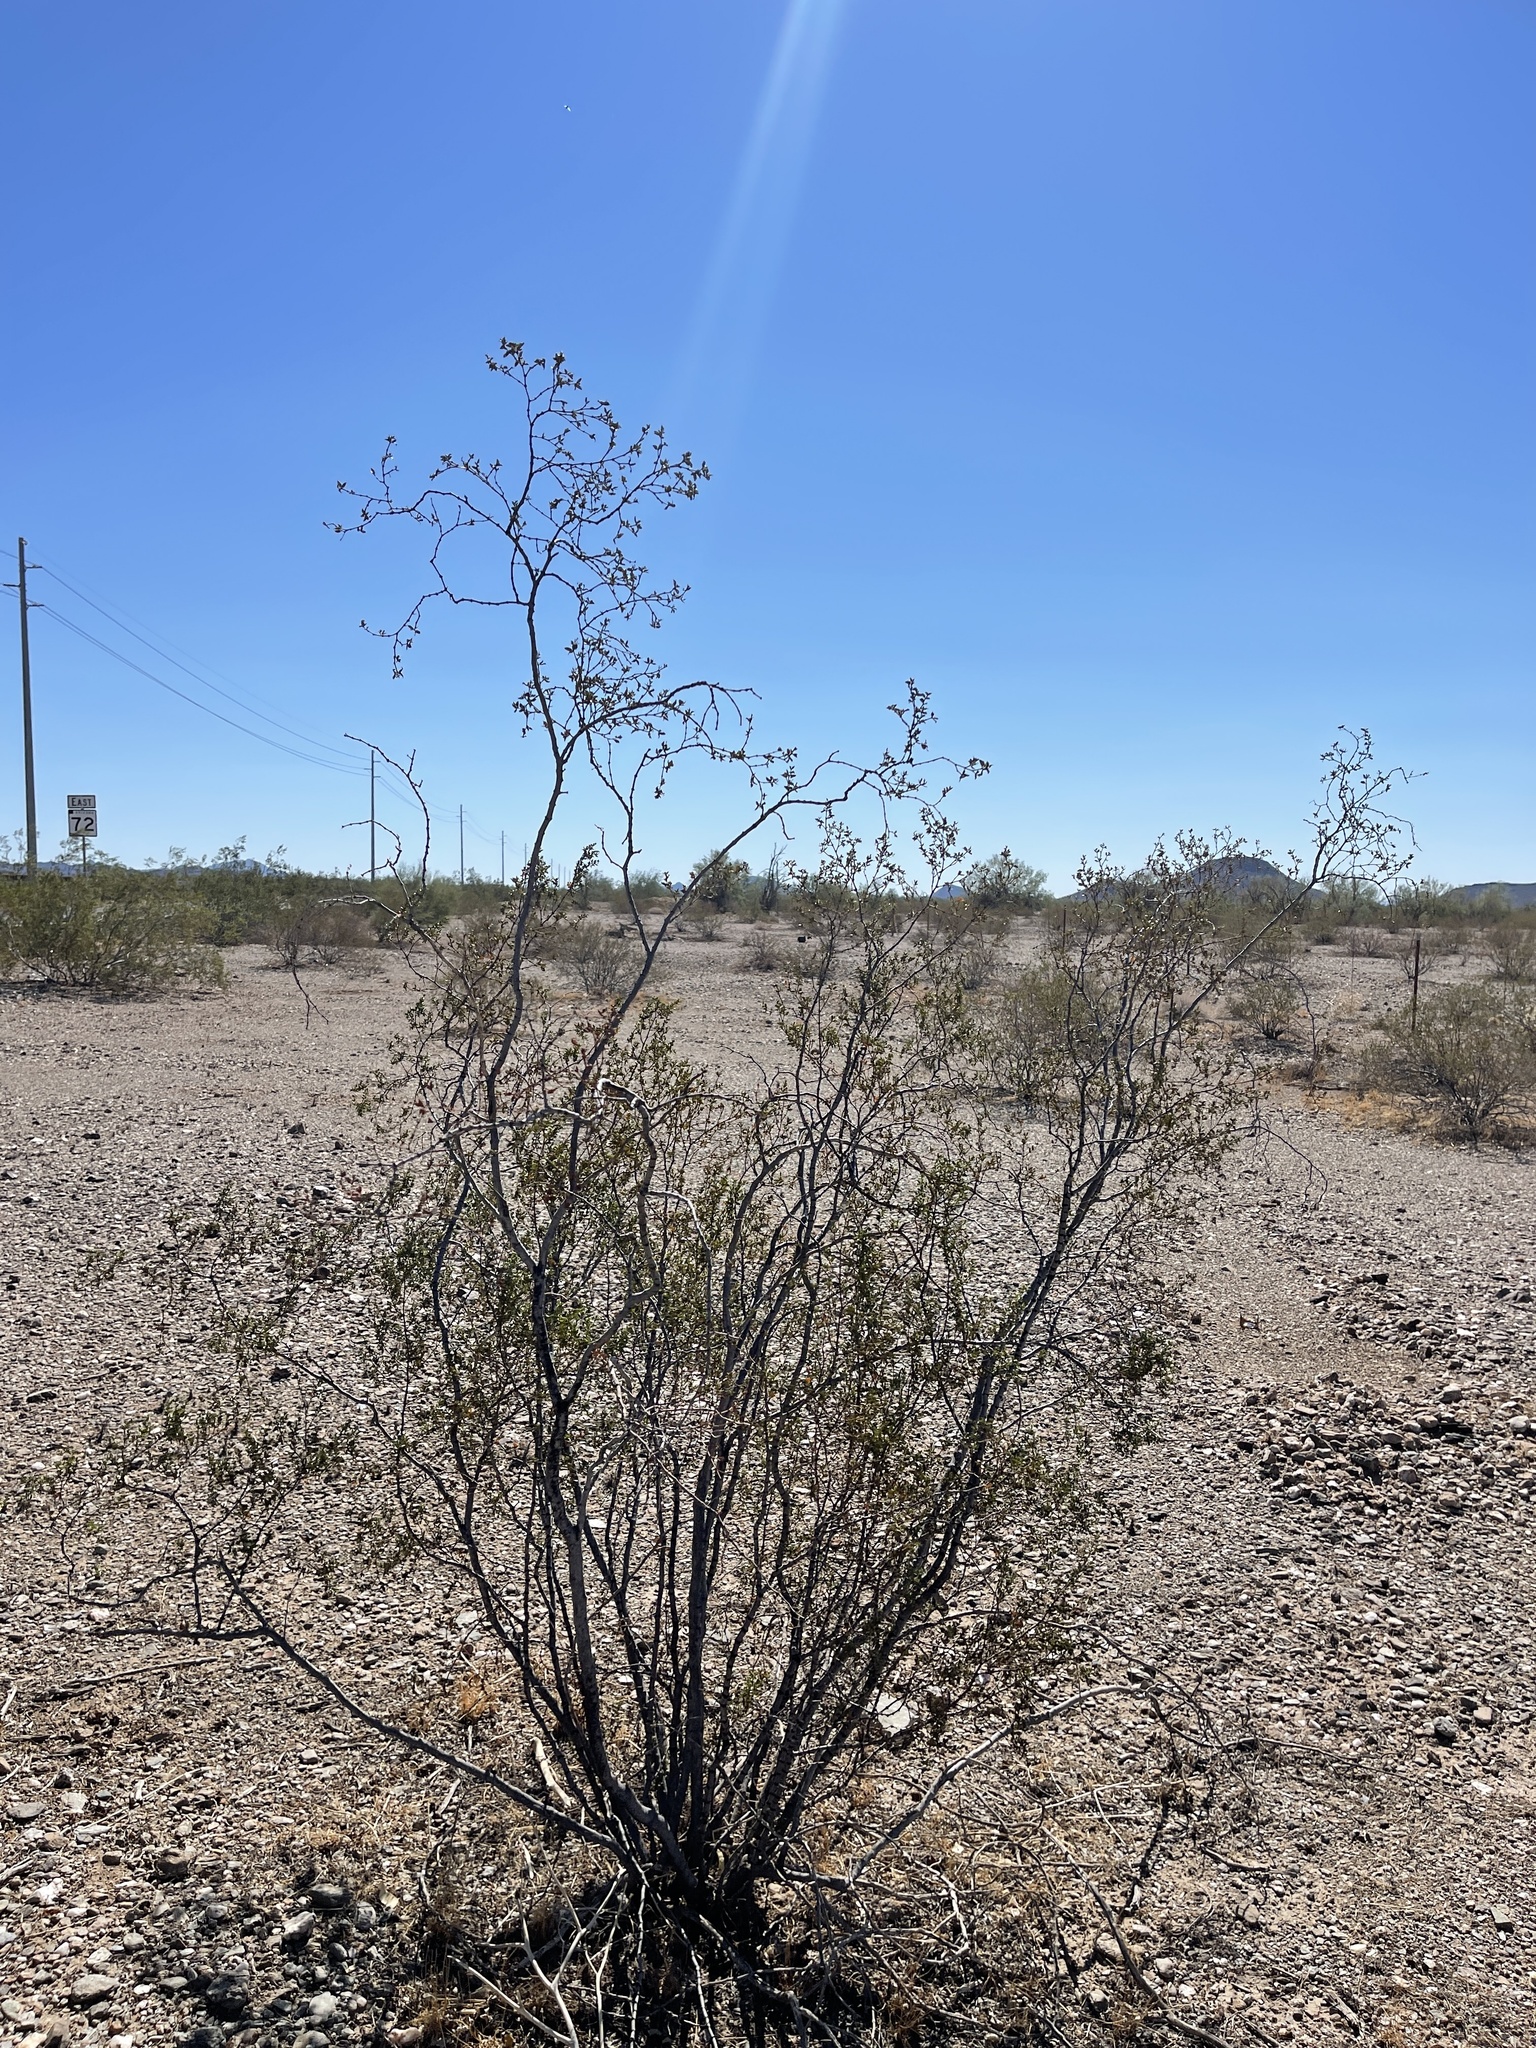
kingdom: Plantae
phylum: Tracheophyta
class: Magnoliopsida
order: Zygophyllales
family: Zygophyllaceae
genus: Larrea
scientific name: Larrea tridentata
